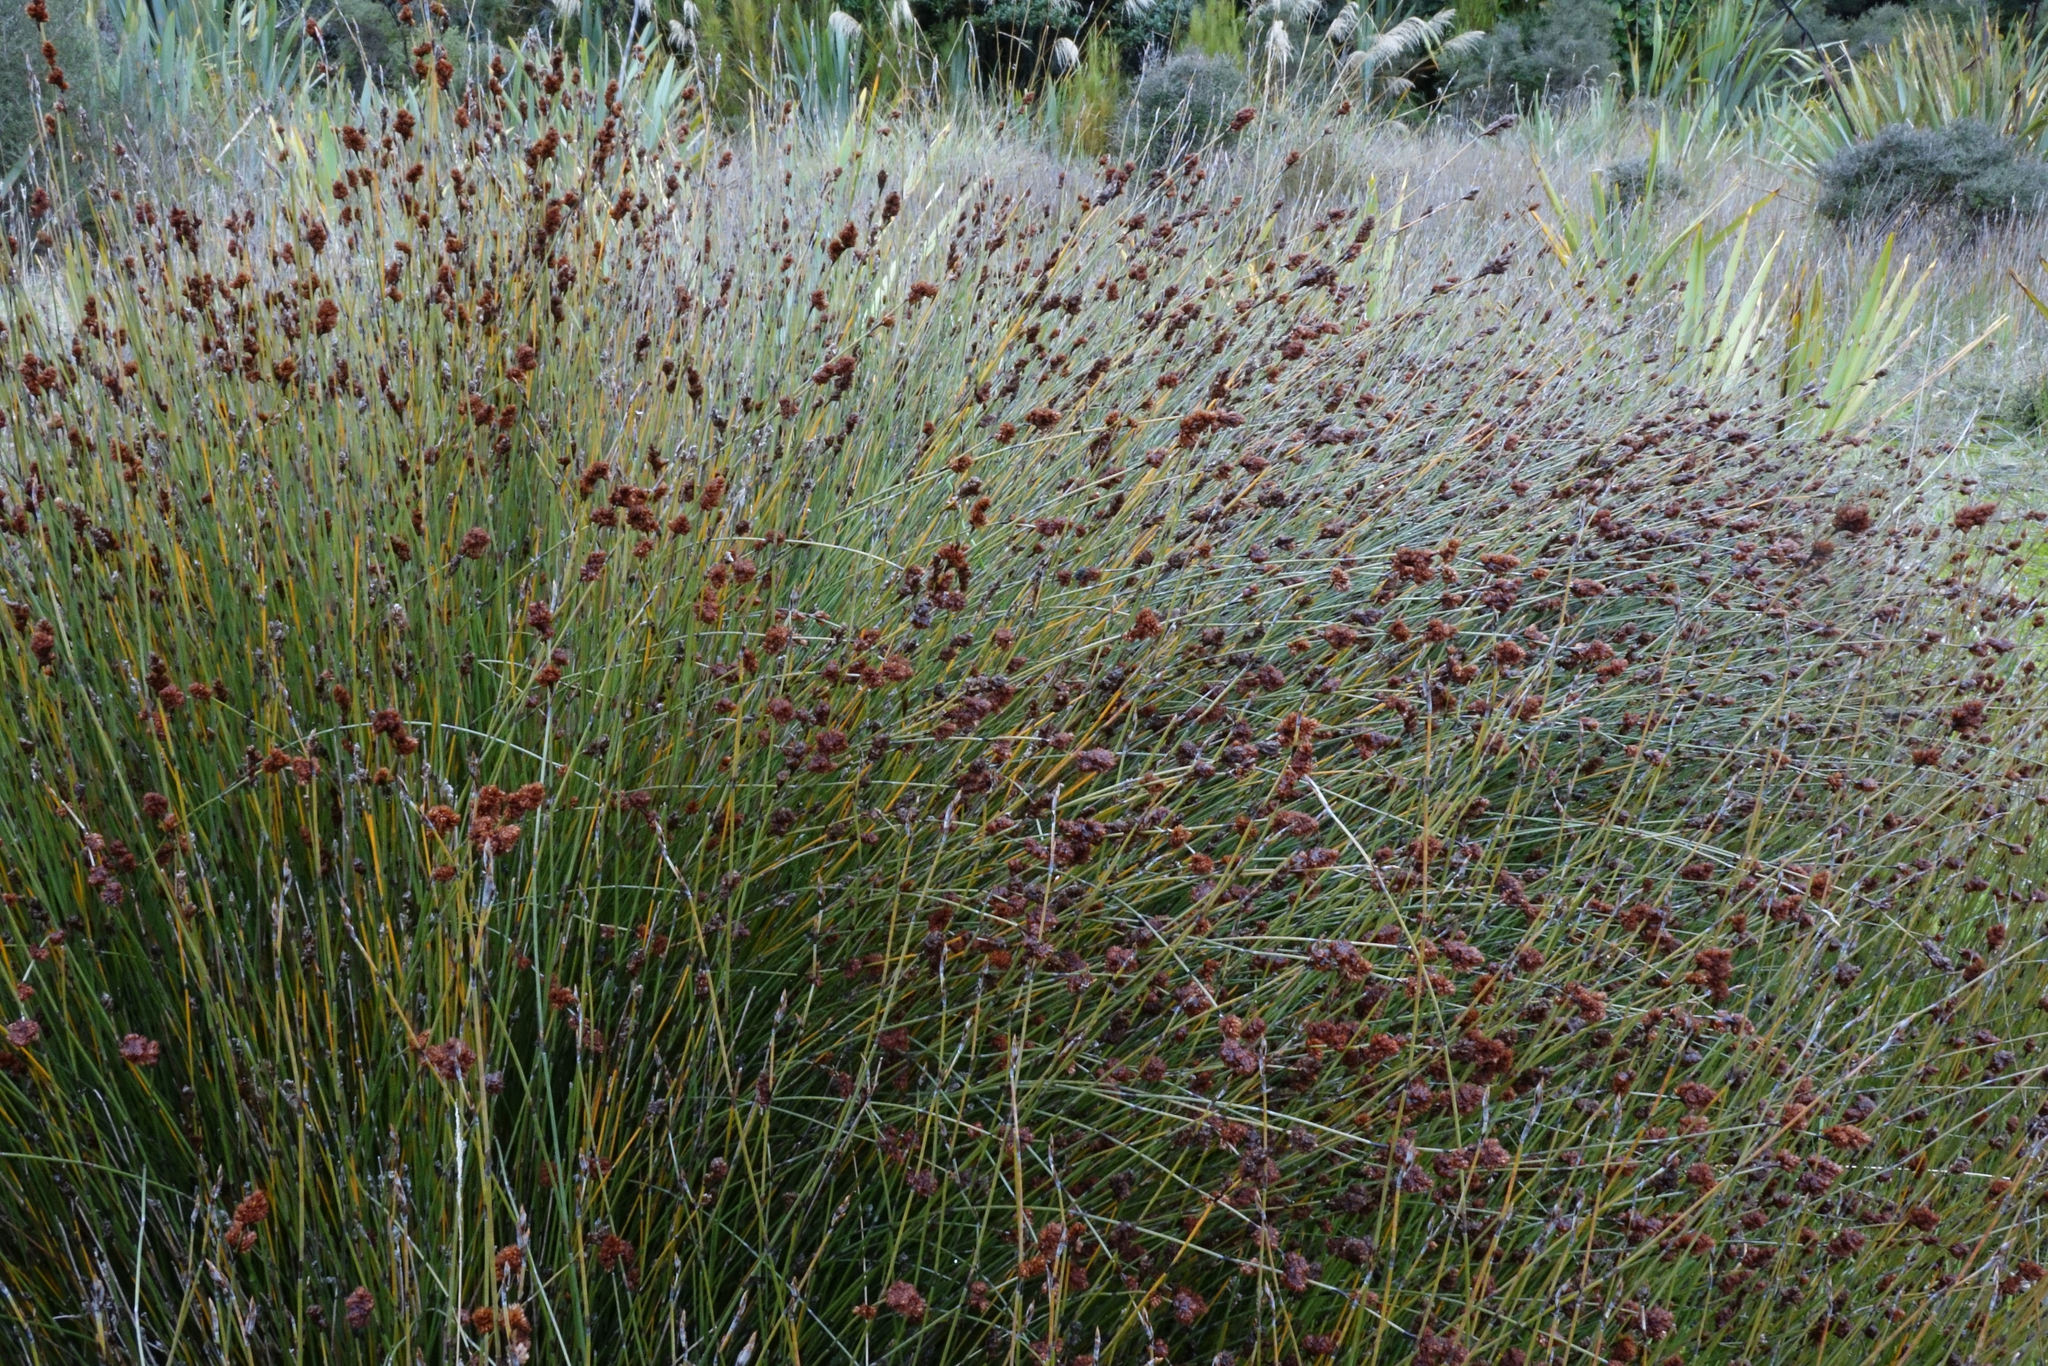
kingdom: Plantae
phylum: Tracheophyta
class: Liliopsida
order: Poales
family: Cyperaceae
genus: Ficinia
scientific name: Ficinia nodosa
